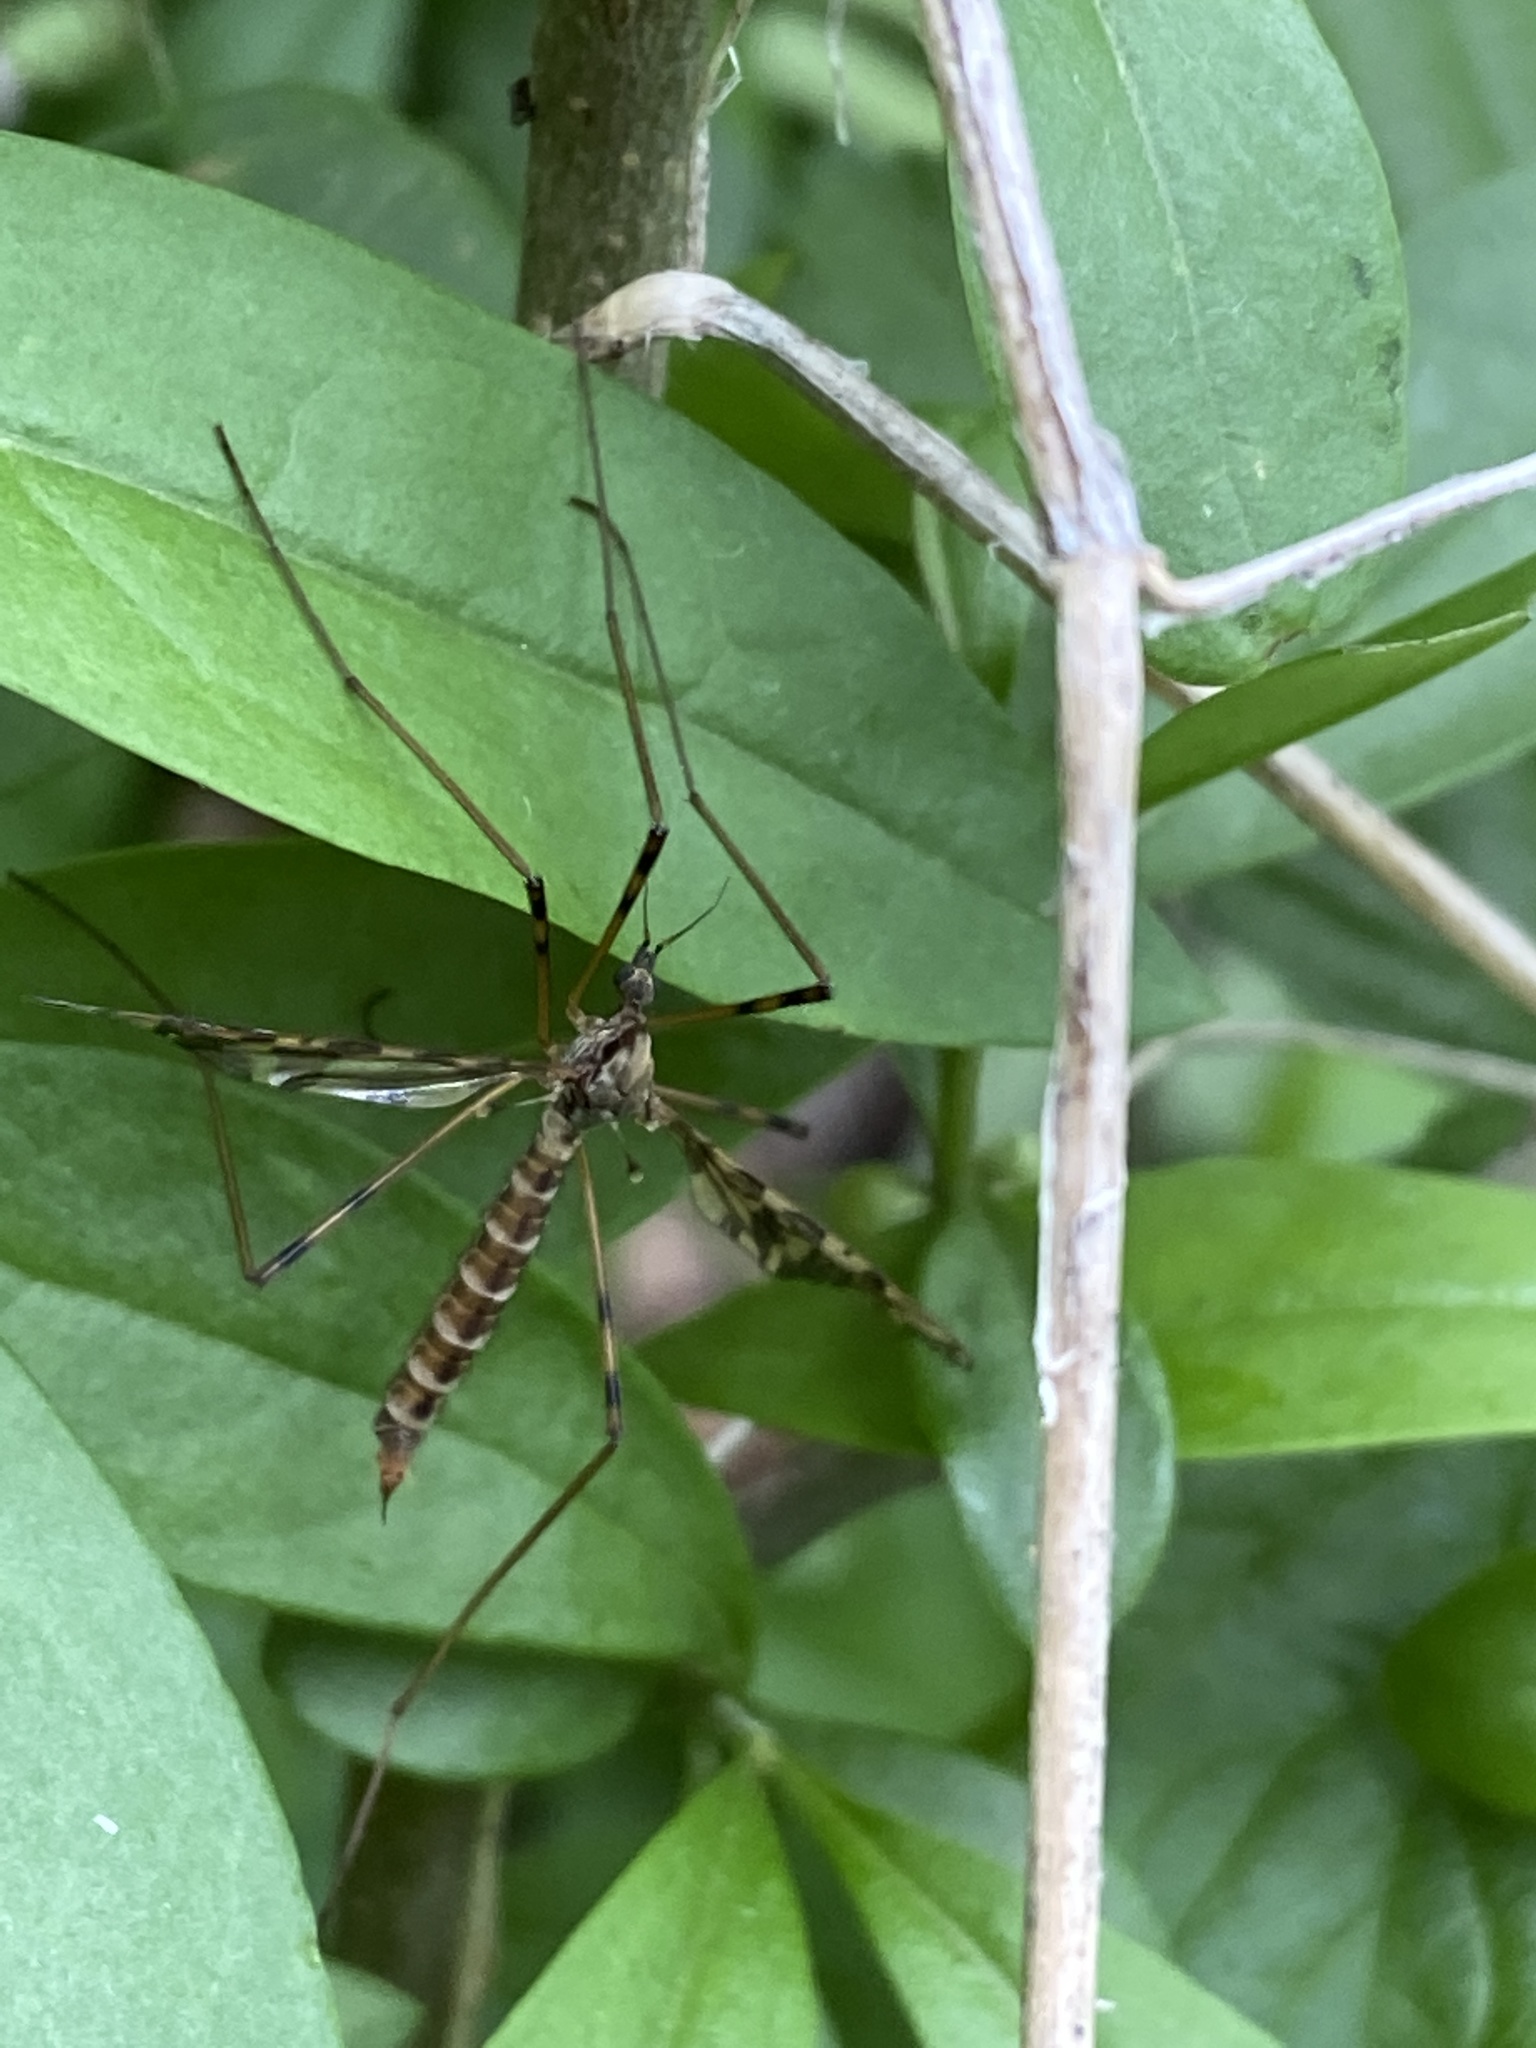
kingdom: Animalia
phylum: Arthropoda
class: Insecta
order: Diptera
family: Limoniidae
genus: Epiphragma
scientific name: Epiphragma ocellare
